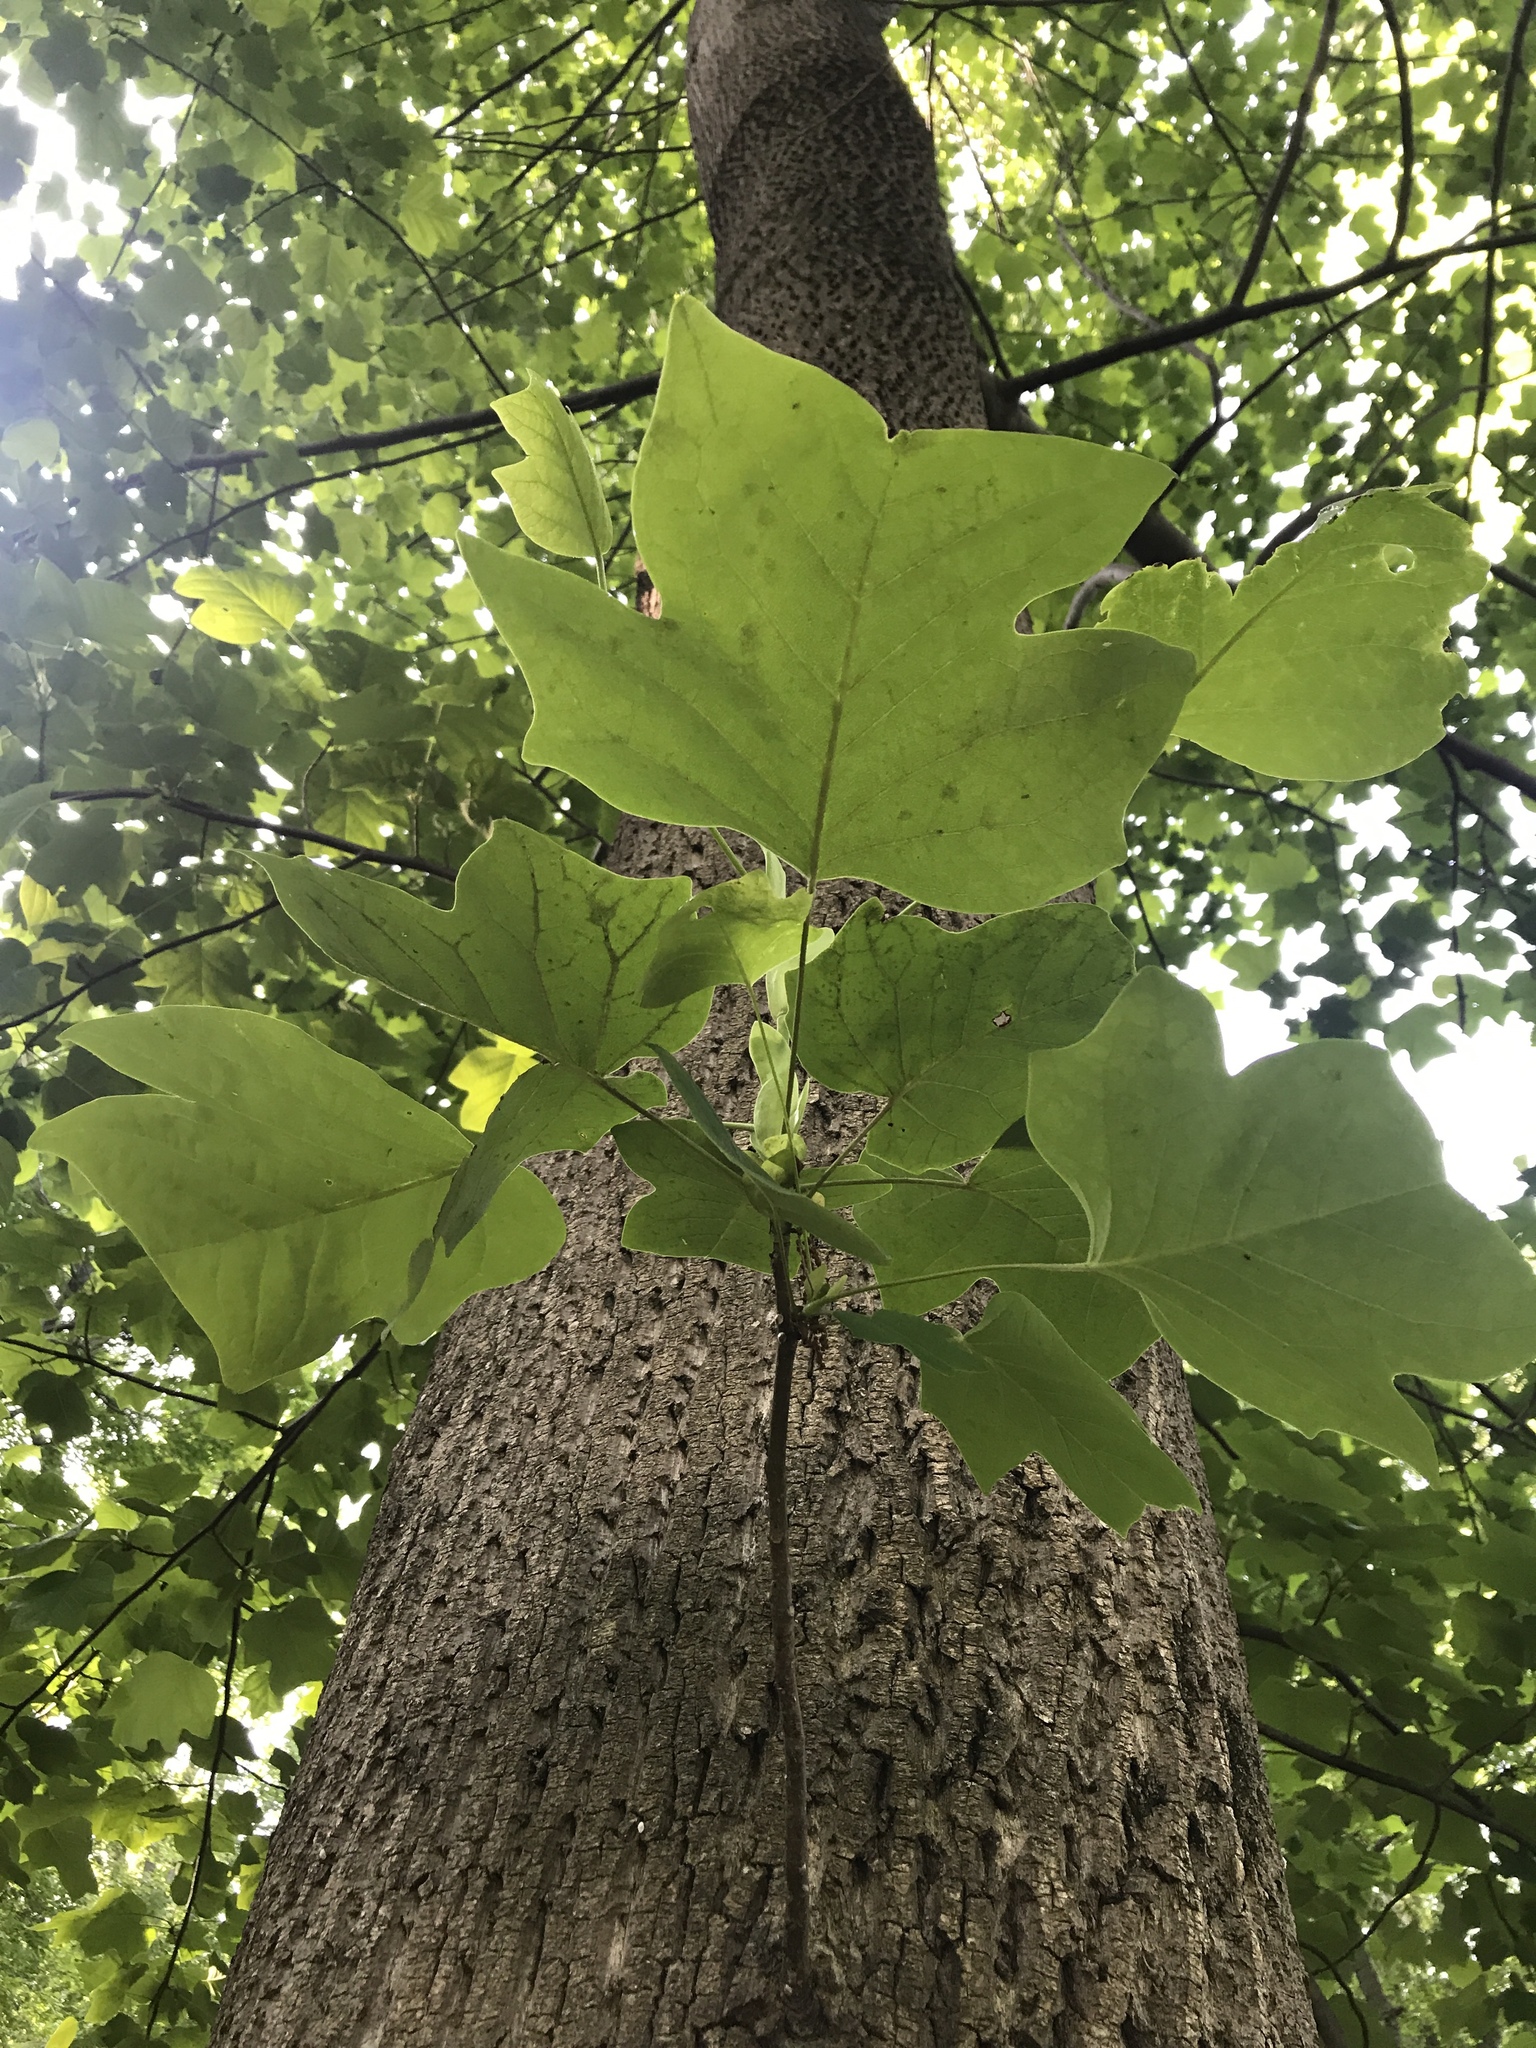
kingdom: Plantae
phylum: Tracheophyta
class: Magnoliopsida
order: Magnoliales
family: Magnoliaceae
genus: Liriodendron
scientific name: Liriodendron tulipifera
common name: Tulip tree
